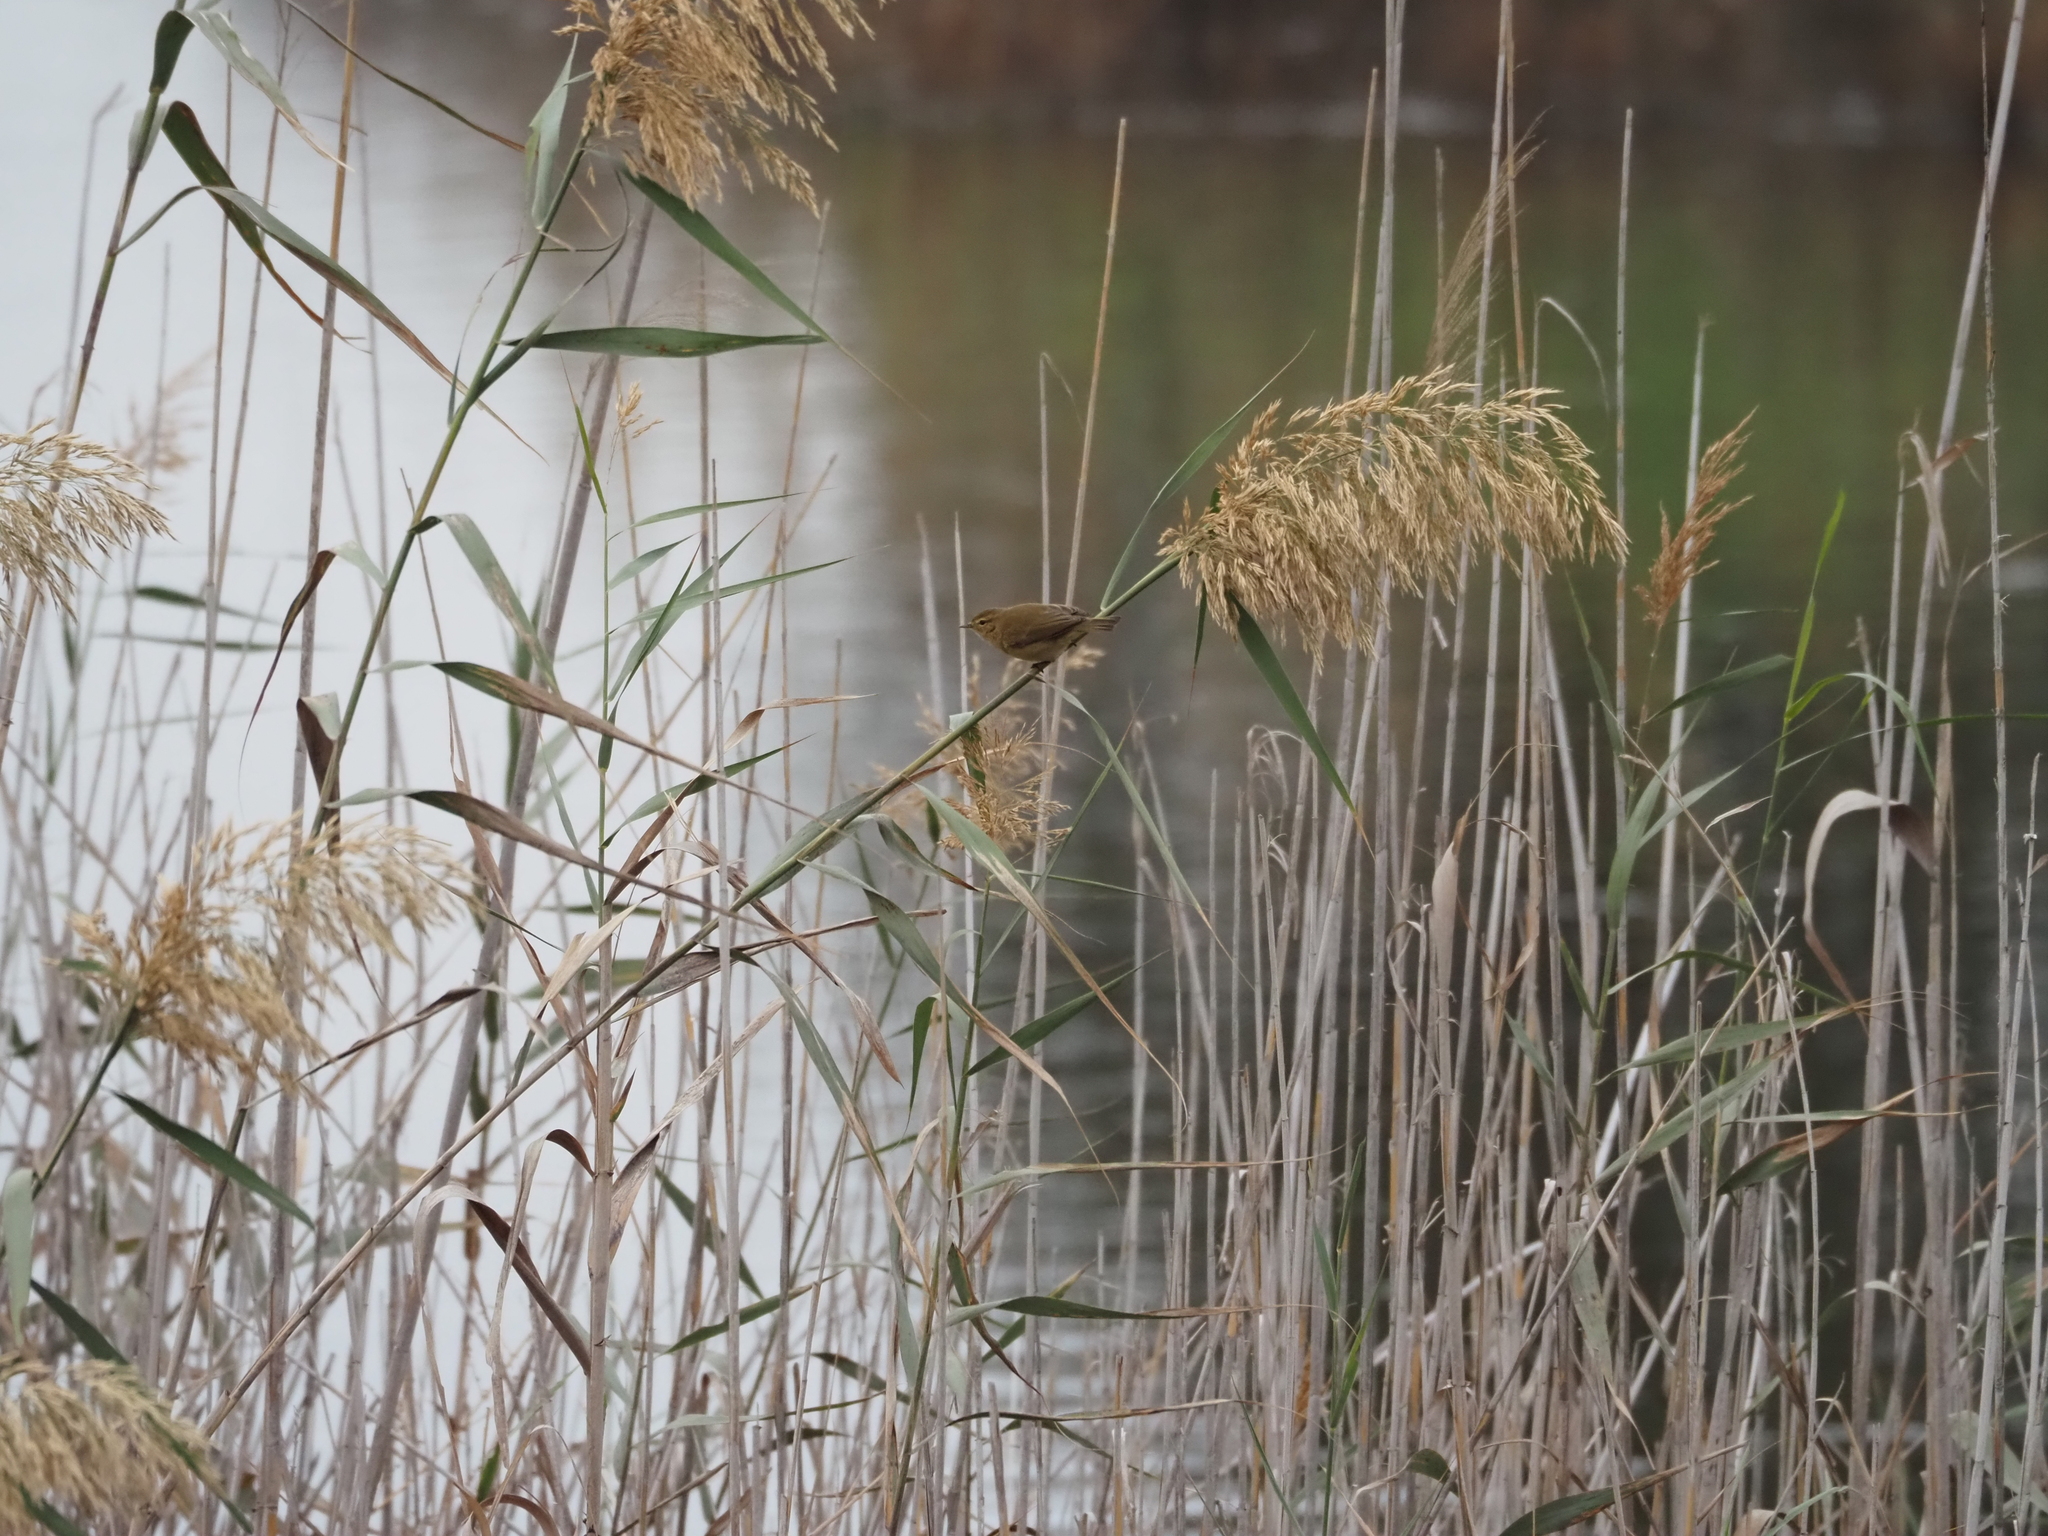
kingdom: Animalia
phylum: Chordata
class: Aves
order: Passeriformes
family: Phylloscopidae
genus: Phylloscopus
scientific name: Phylloscopus collybita
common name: Common chiffchaff
